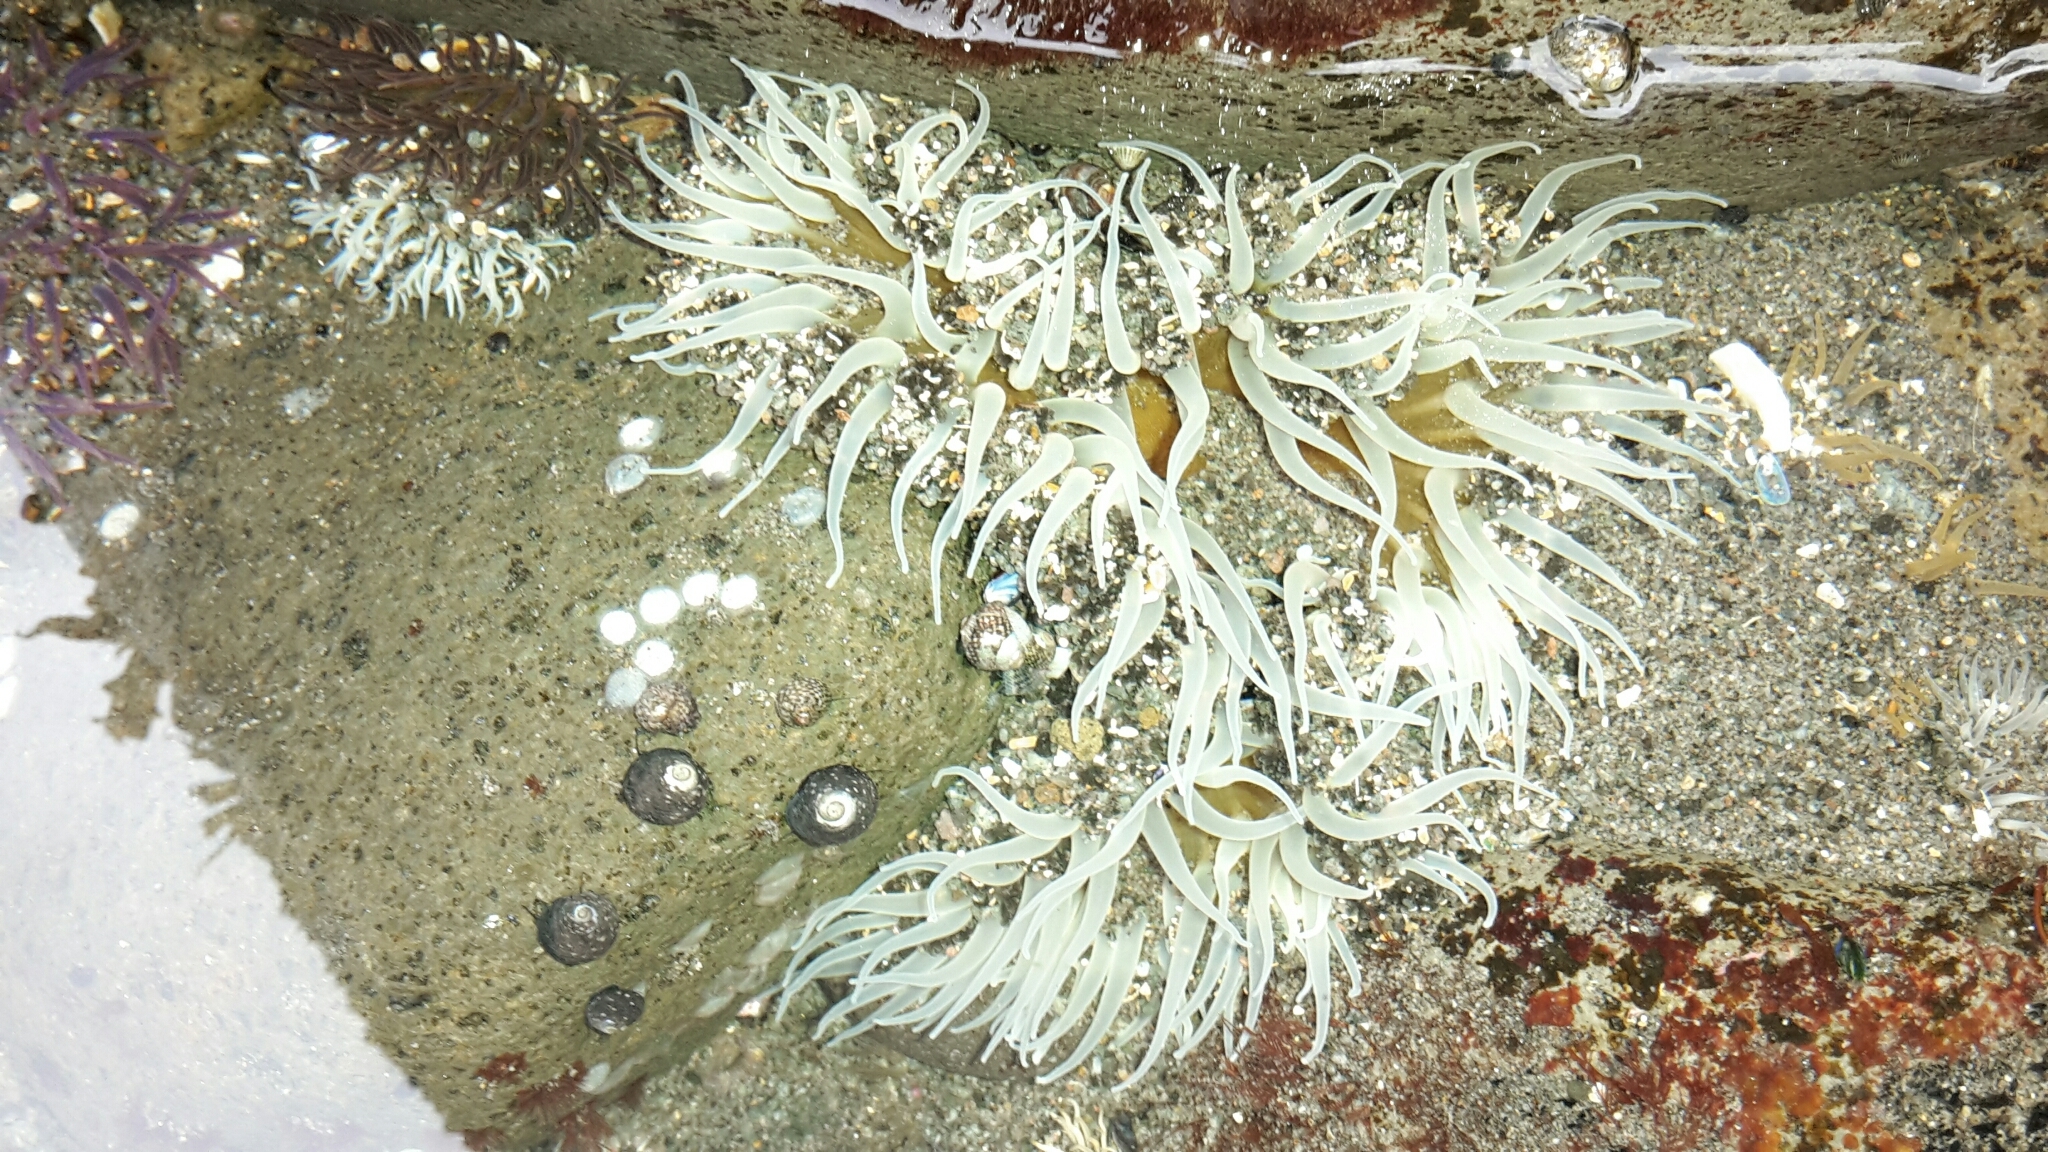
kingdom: Animalia
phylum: Cnidaria
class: Anthozoa
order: Actiniaria
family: Actiniidae
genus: Oulactis
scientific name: Oulactis magna
